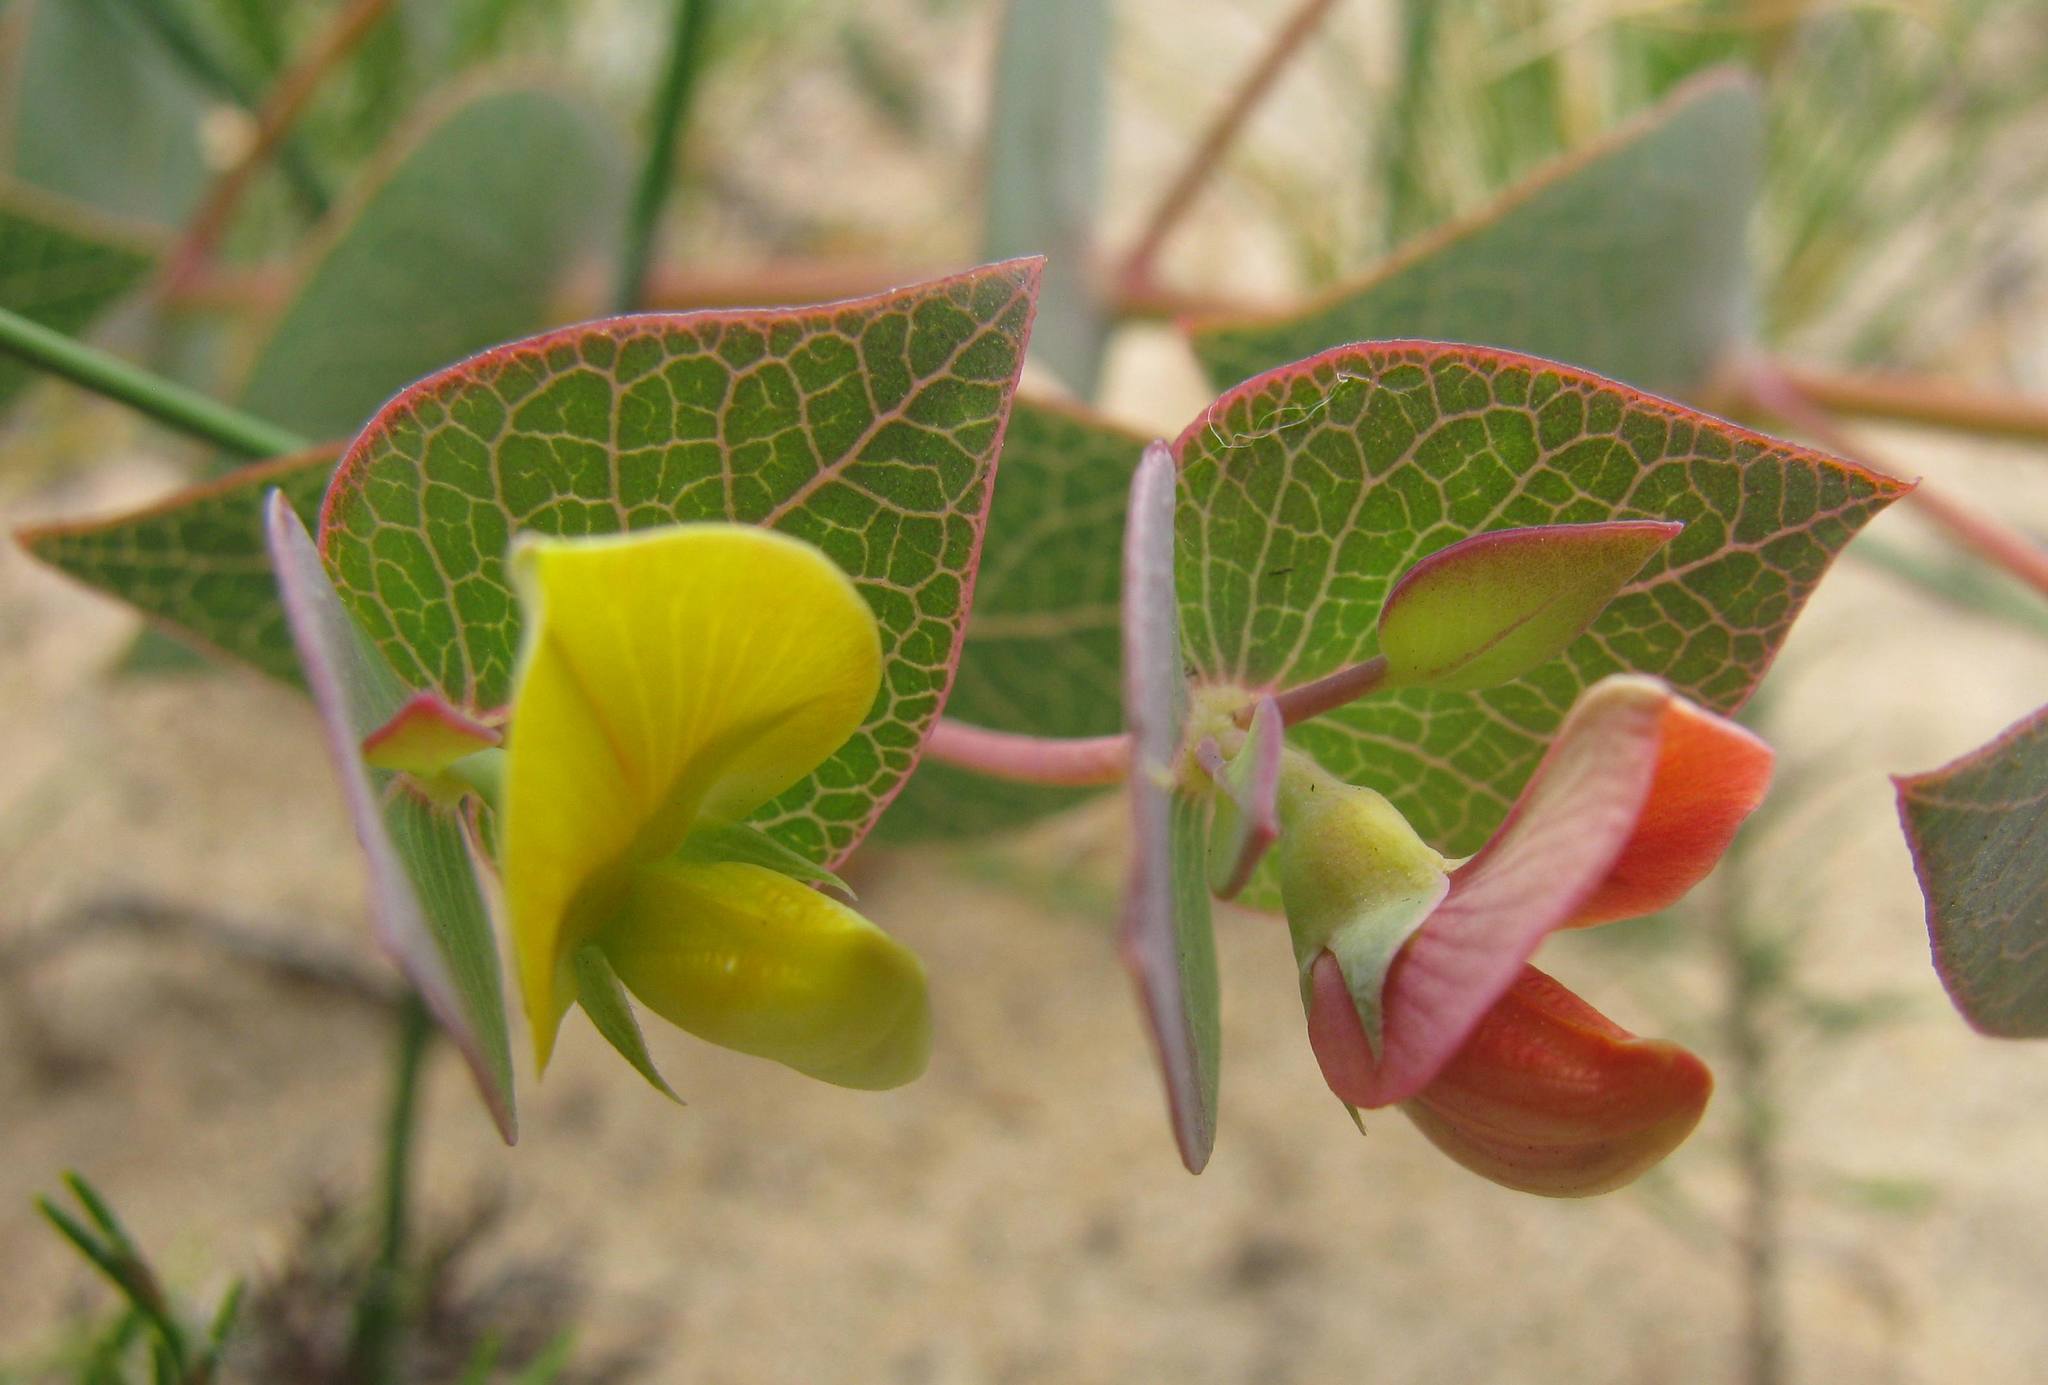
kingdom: Plantae
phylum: Tracheophyta
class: Magnoliopsida
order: Fabales
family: Fabaceae
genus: Rafnia
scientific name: Rafnia acuminata
